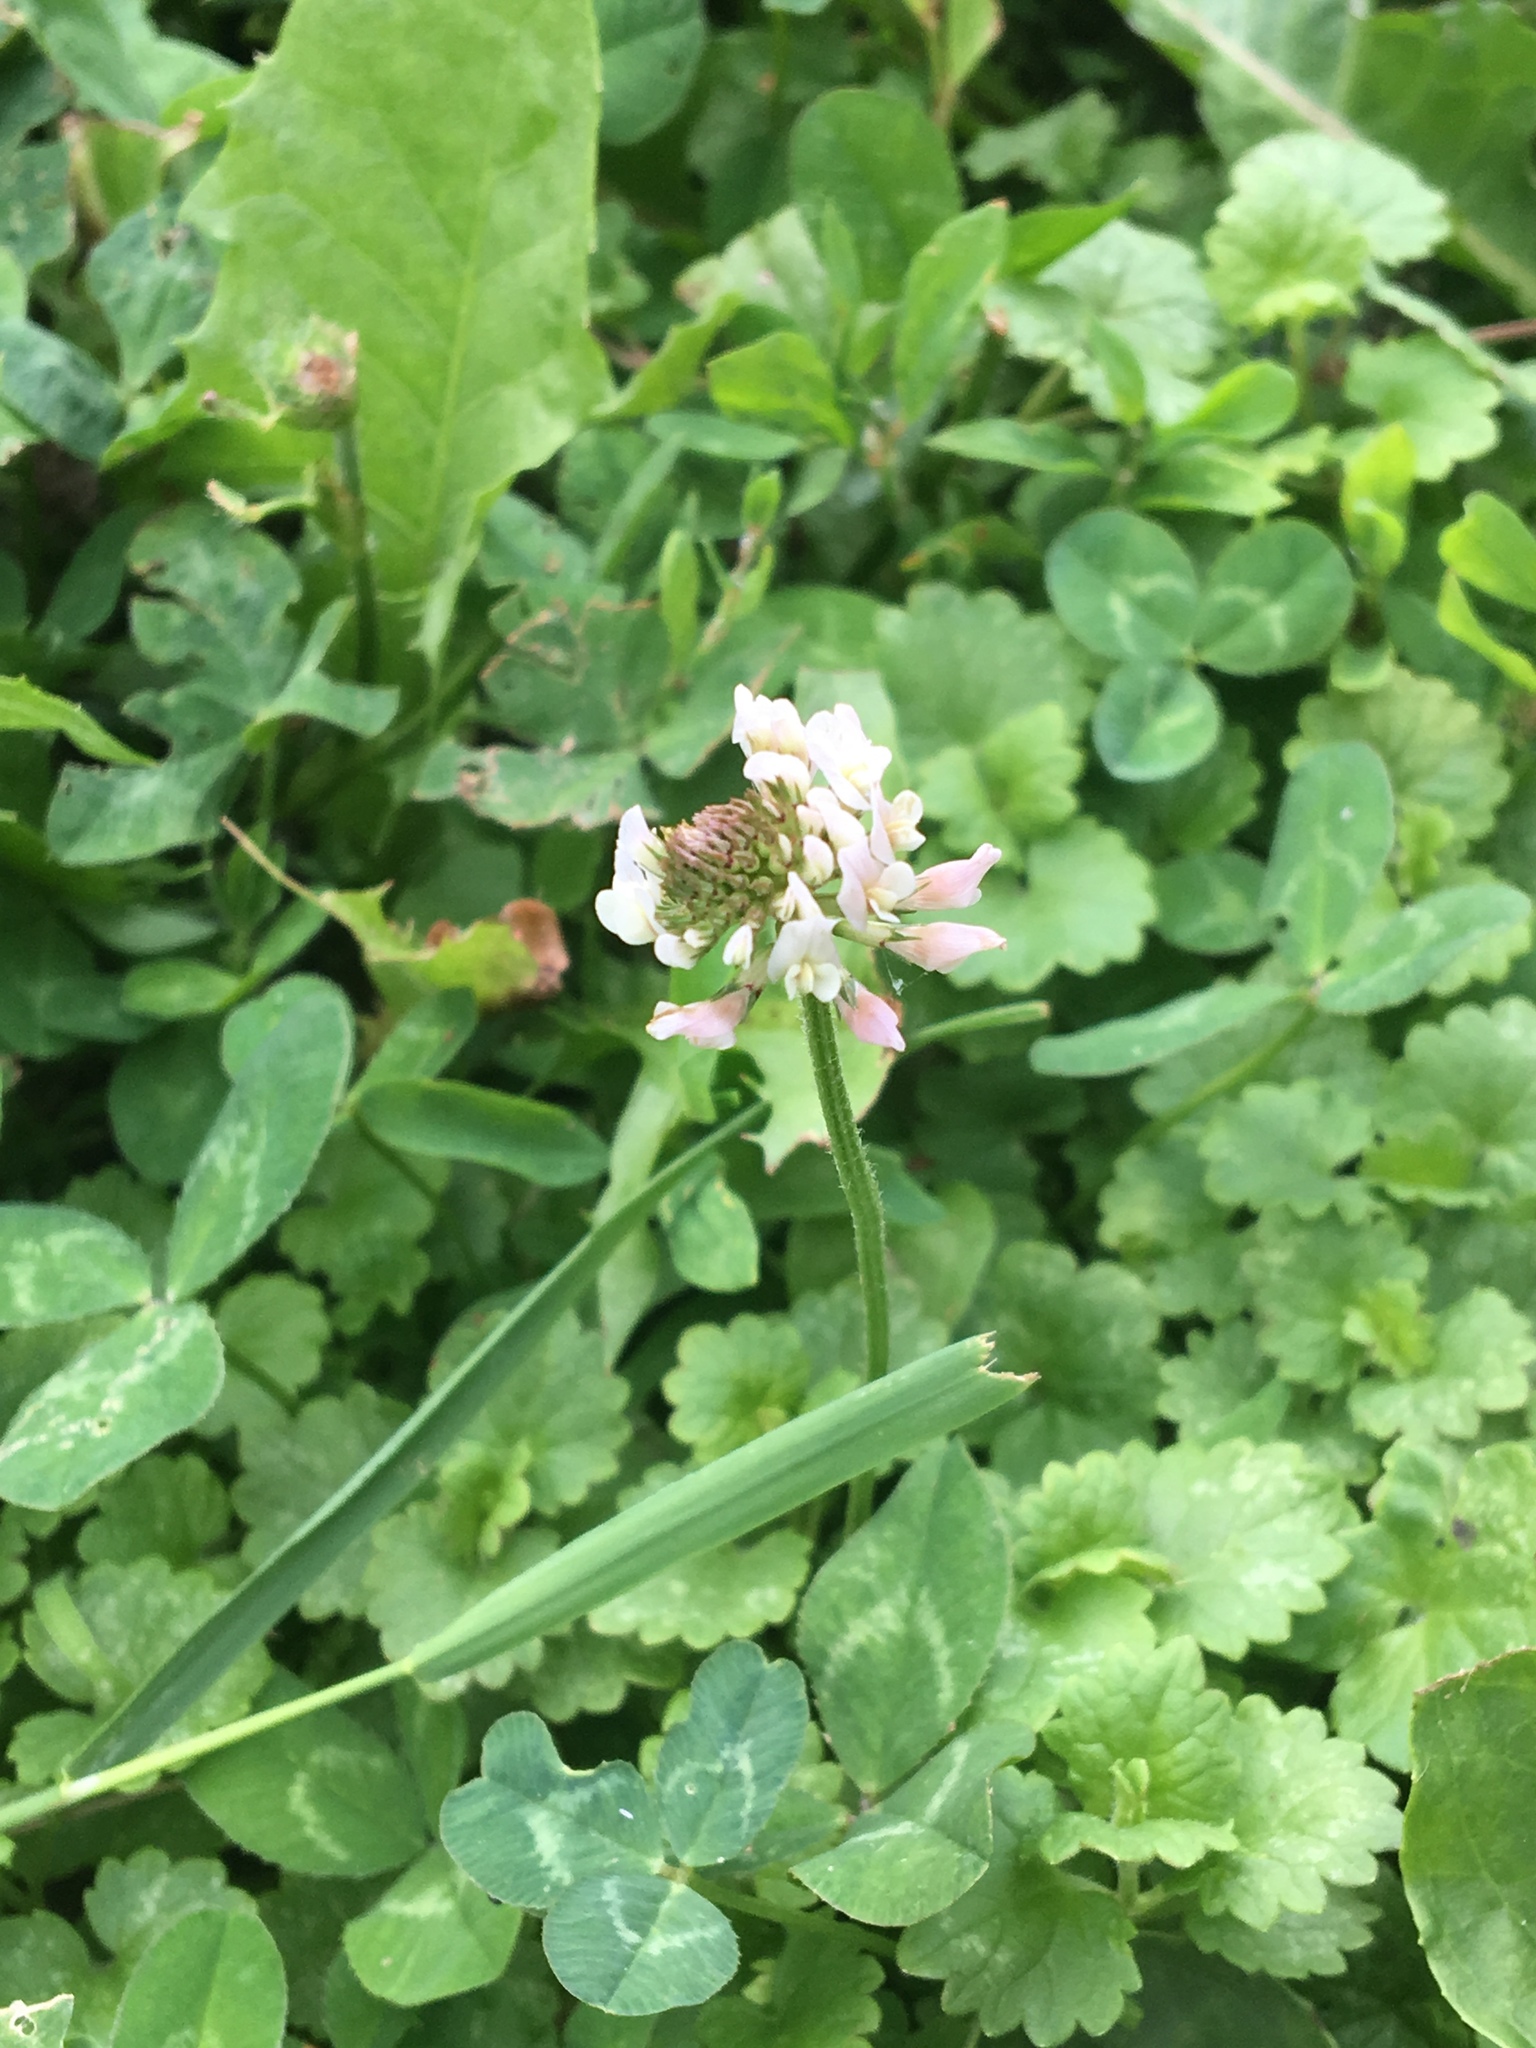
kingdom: Plantae
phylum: Tracheophyta
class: Magnoliopsida
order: Fabales
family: Fabaceae
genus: Trifolium
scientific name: Trifolium repens
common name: White clover
